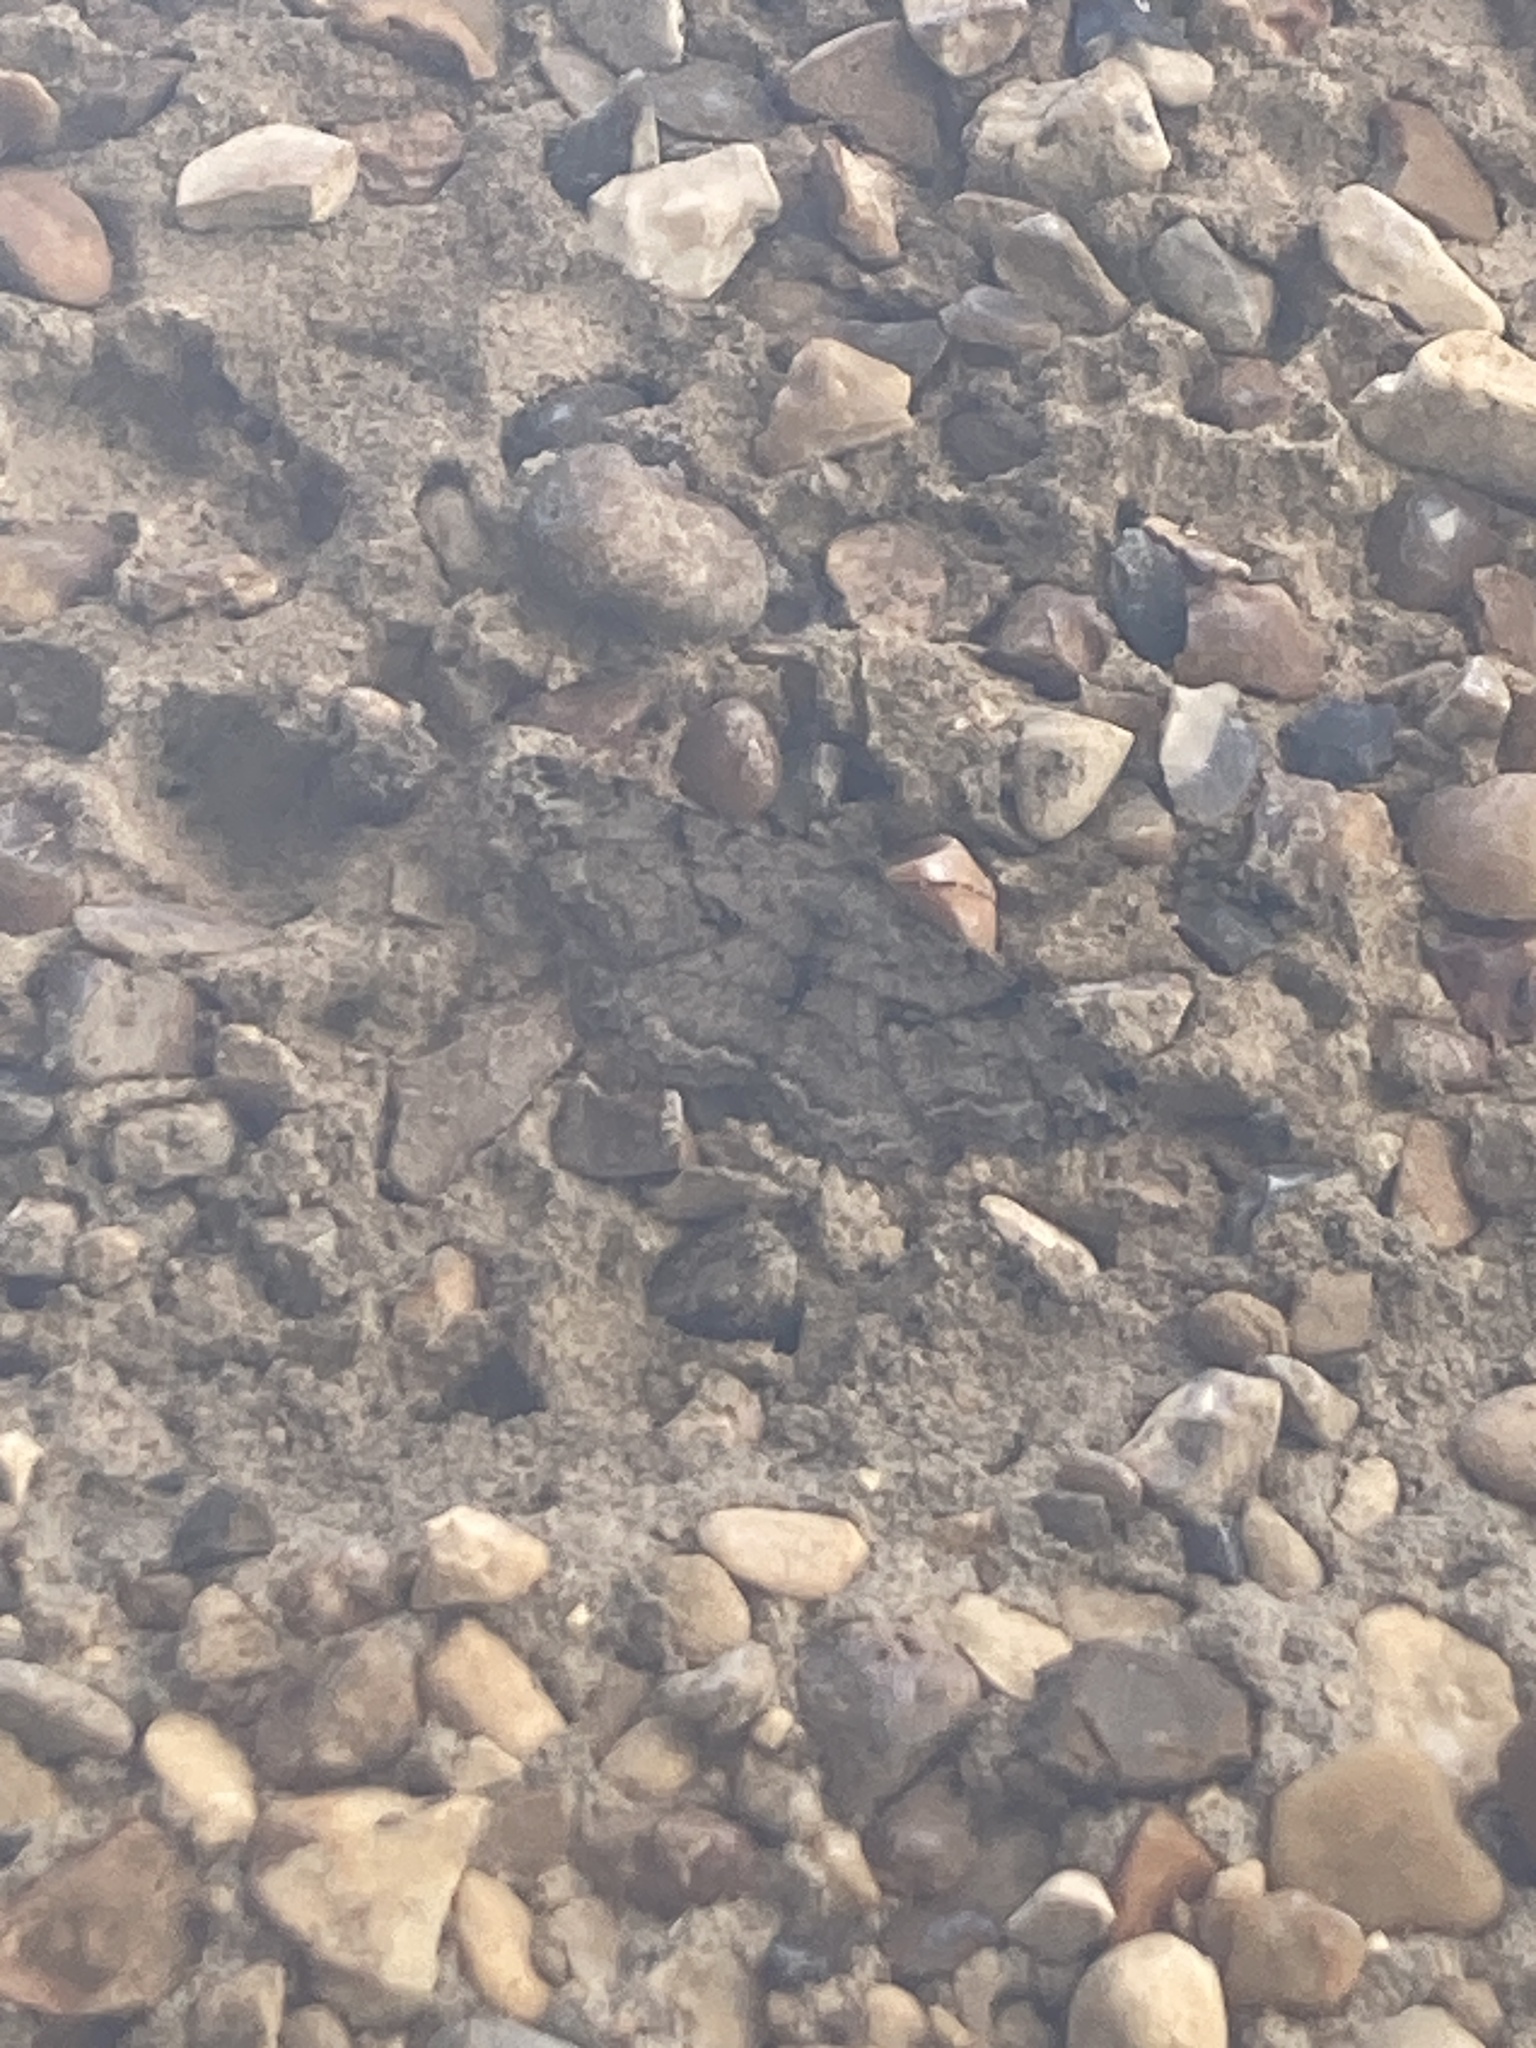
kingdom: Animalia
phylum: Arthropoda
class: Insecta
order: Lepidoptera
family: Geometridae
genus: Peribatodes
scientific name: Peribatodes rhomboidaria
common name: Willow beauty
